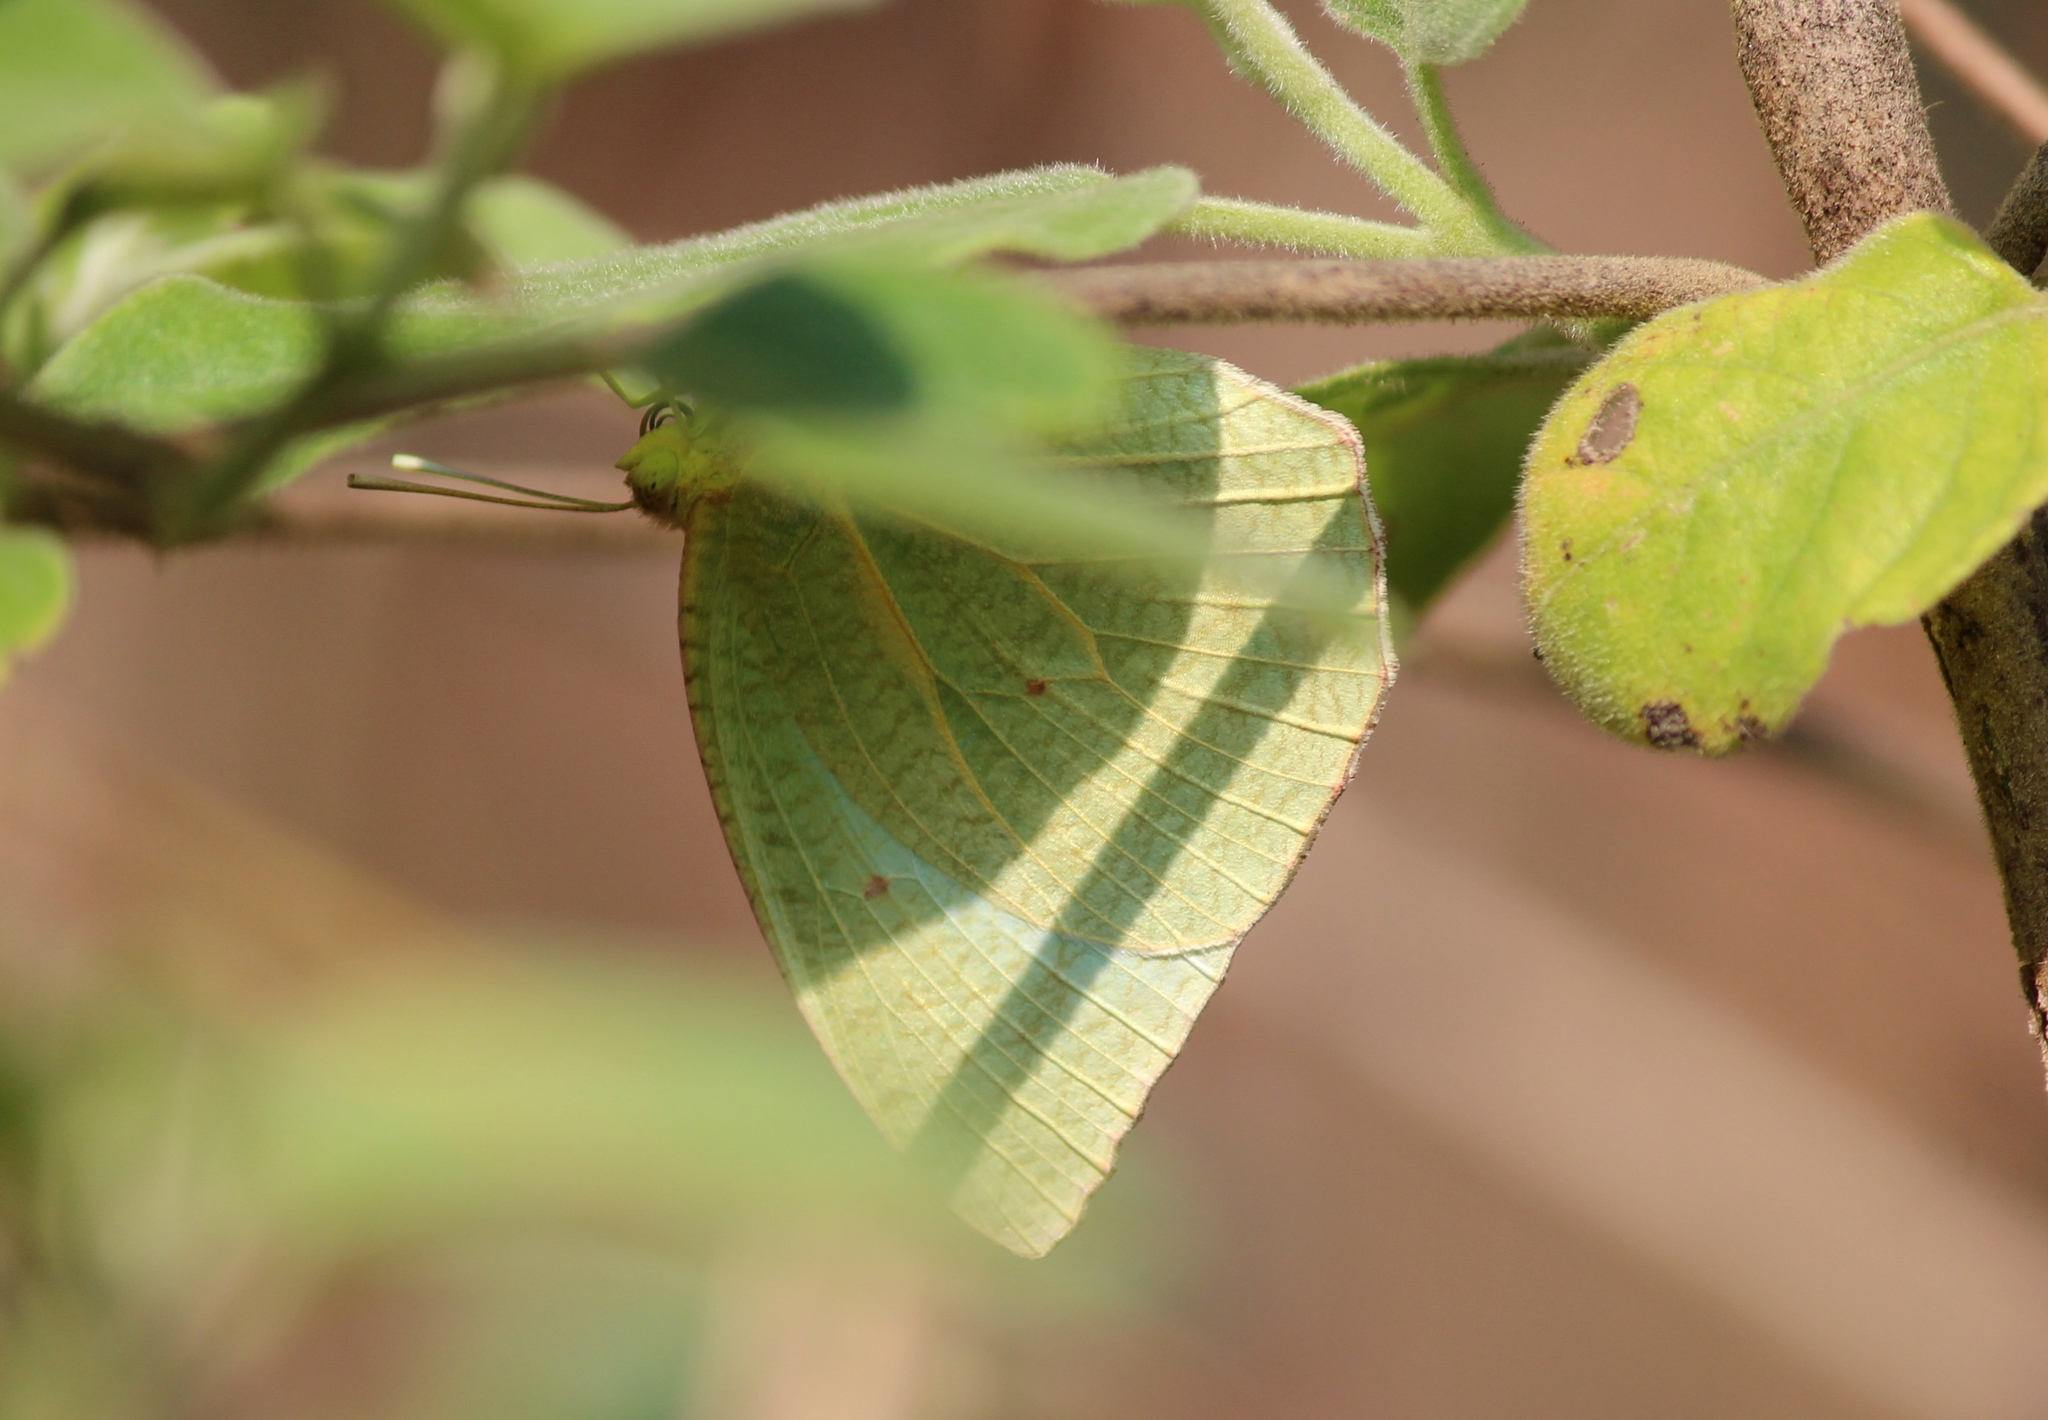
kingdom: Animalia
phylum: Arthropoda
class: Insecta
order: Lepidoptera
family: Pieridae
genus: Catopsilia
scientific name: Catopsilia pyranthe
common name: Mottled emigrant
